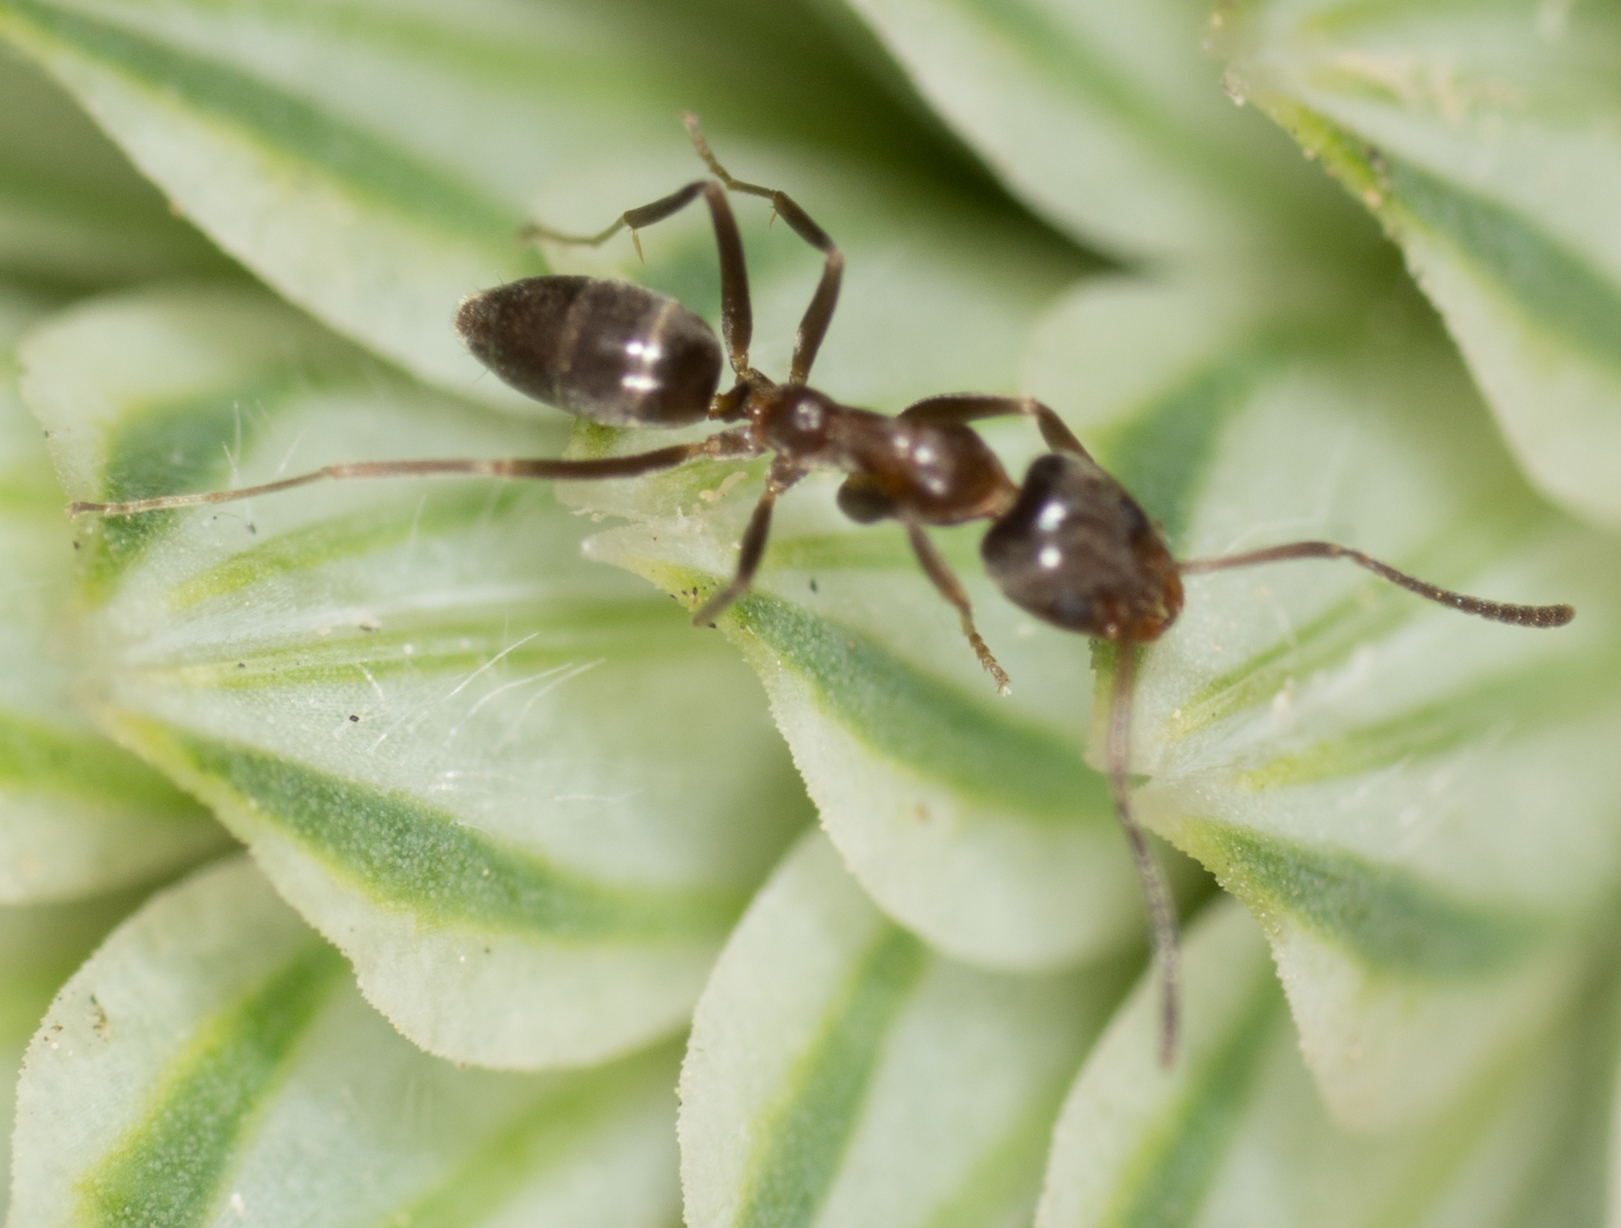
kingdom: Animalia
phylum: Arthropoda
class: Insecta
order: Hymenoptera
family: Formicidae
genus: Linepithema
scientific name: Linepithema humile
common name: Argentine ant
